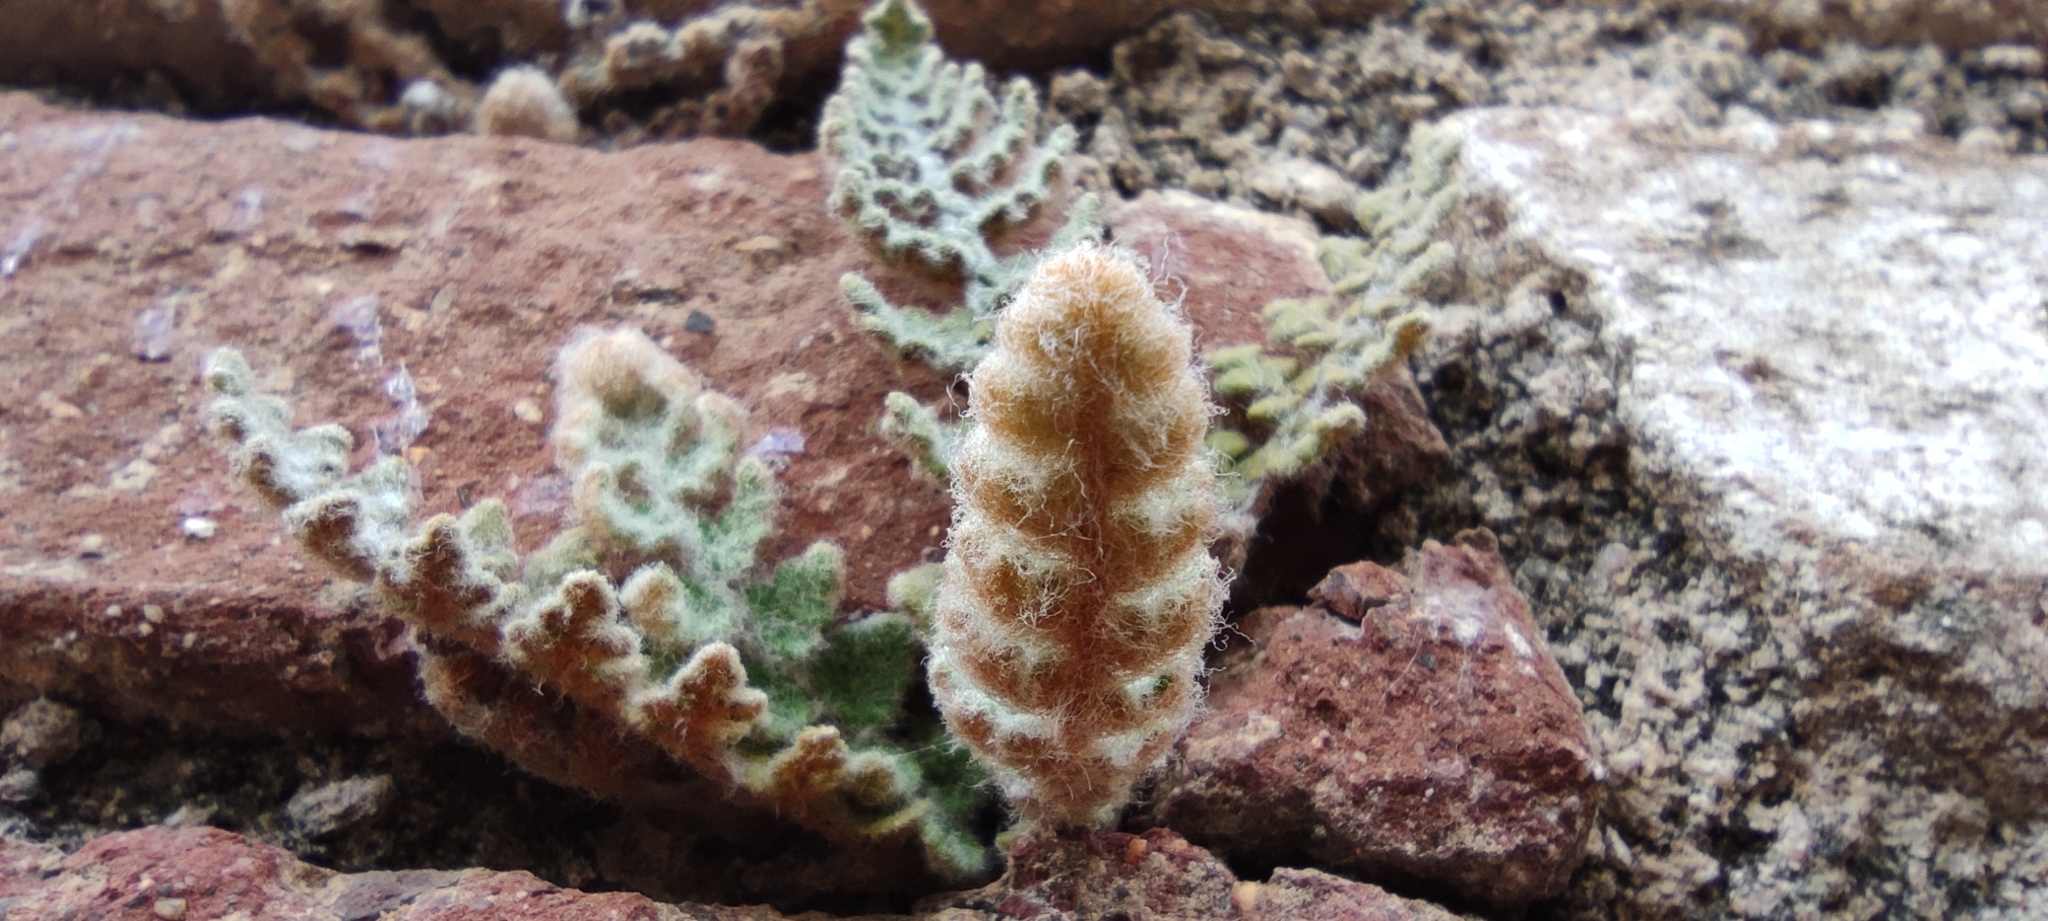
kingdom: Plantae
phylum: Tracheophyta
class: Polypodiopsida
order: Polypodiales
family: Pteridaceae
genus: Cosentinia
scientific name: Cosentinia vellea
